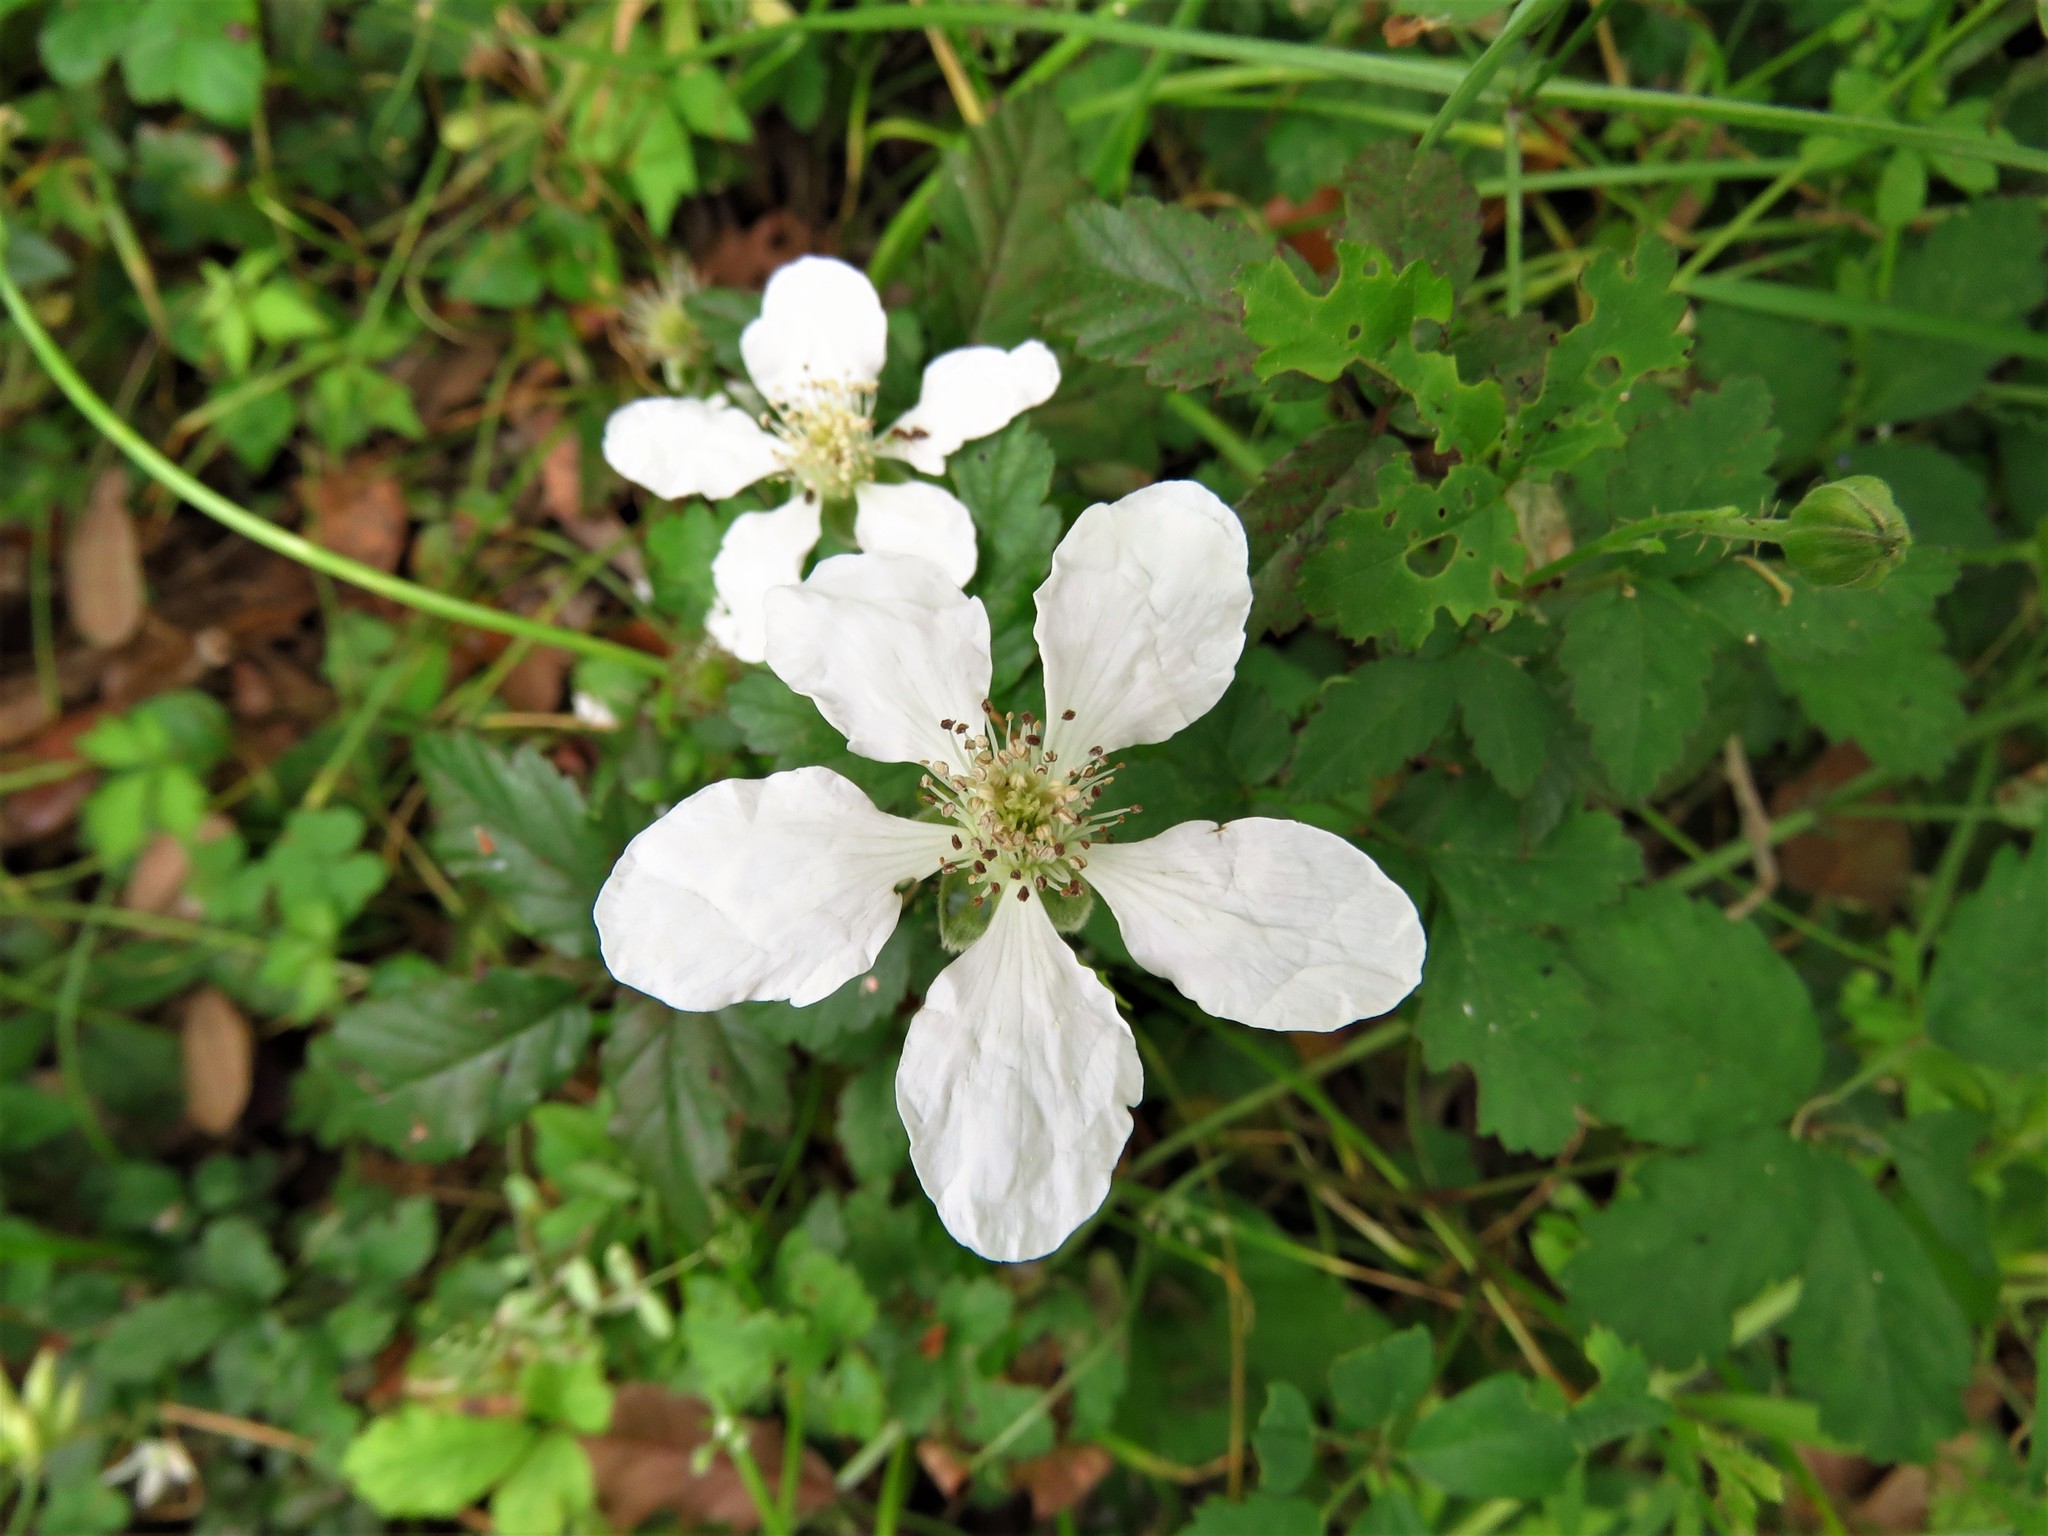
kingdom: Plantae
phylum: Tracheophyta
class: Magnoliopsida
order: Rosales
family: Rosaceae
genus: Rubus
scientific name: Rubus trivialis
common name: Southern dewberry
